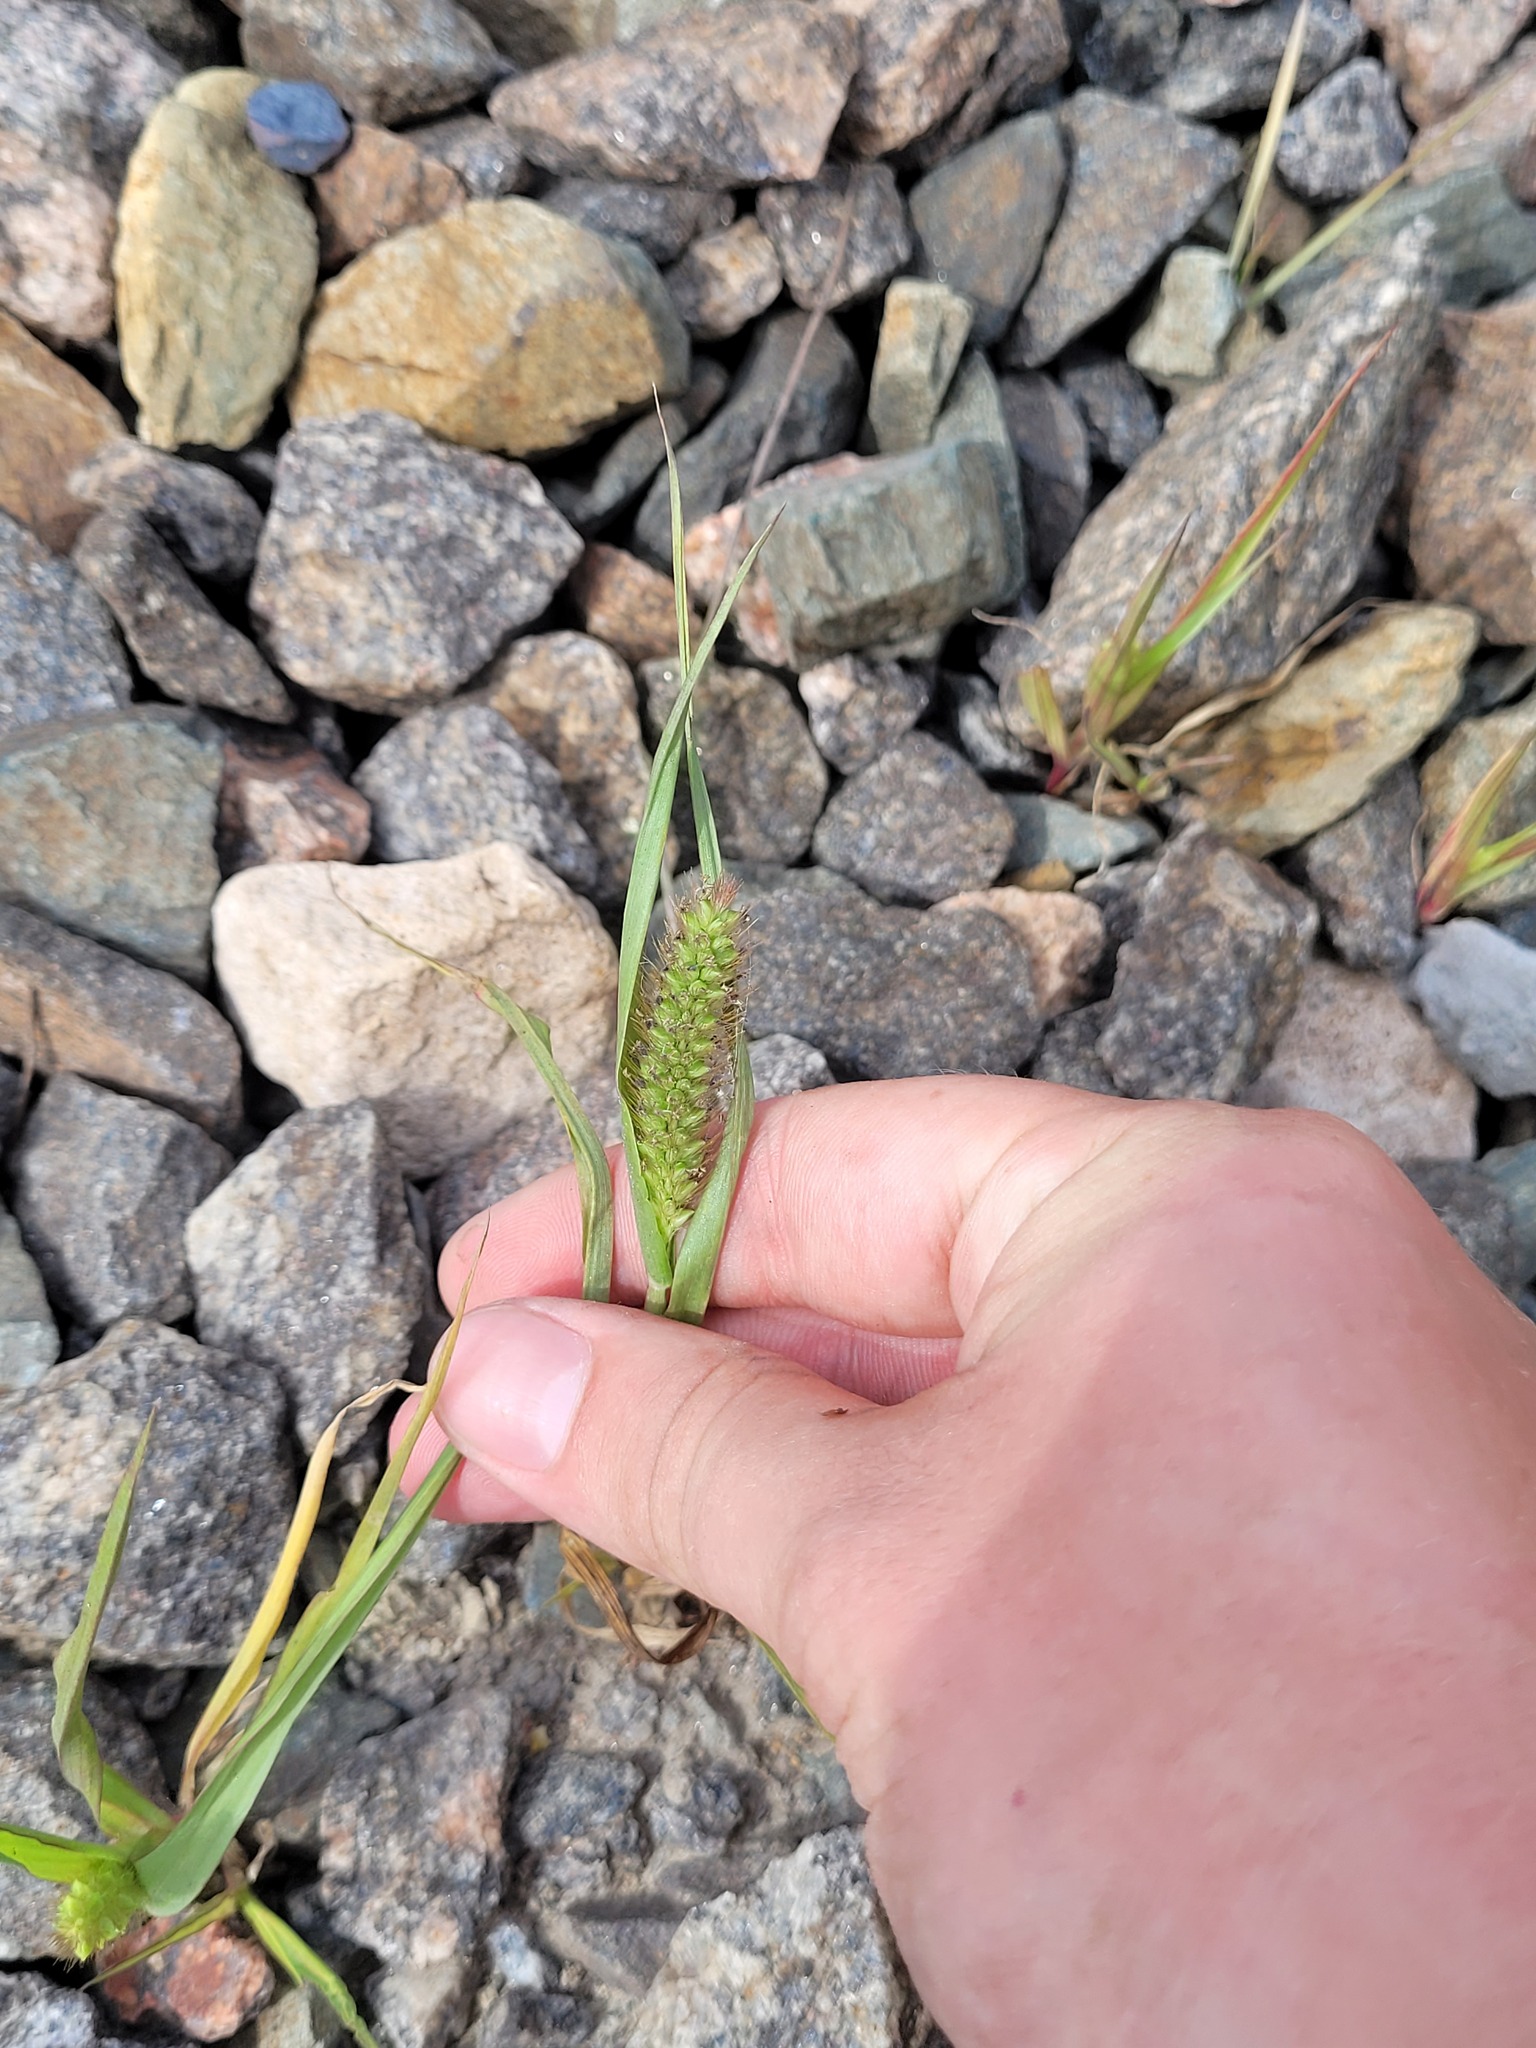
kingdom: Plantae
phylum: Tracheophyta
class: Liliopsida
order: Poales
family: Poaceae
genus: Setaria
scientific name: Setaria pumila
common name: Yellow bristle-grass
